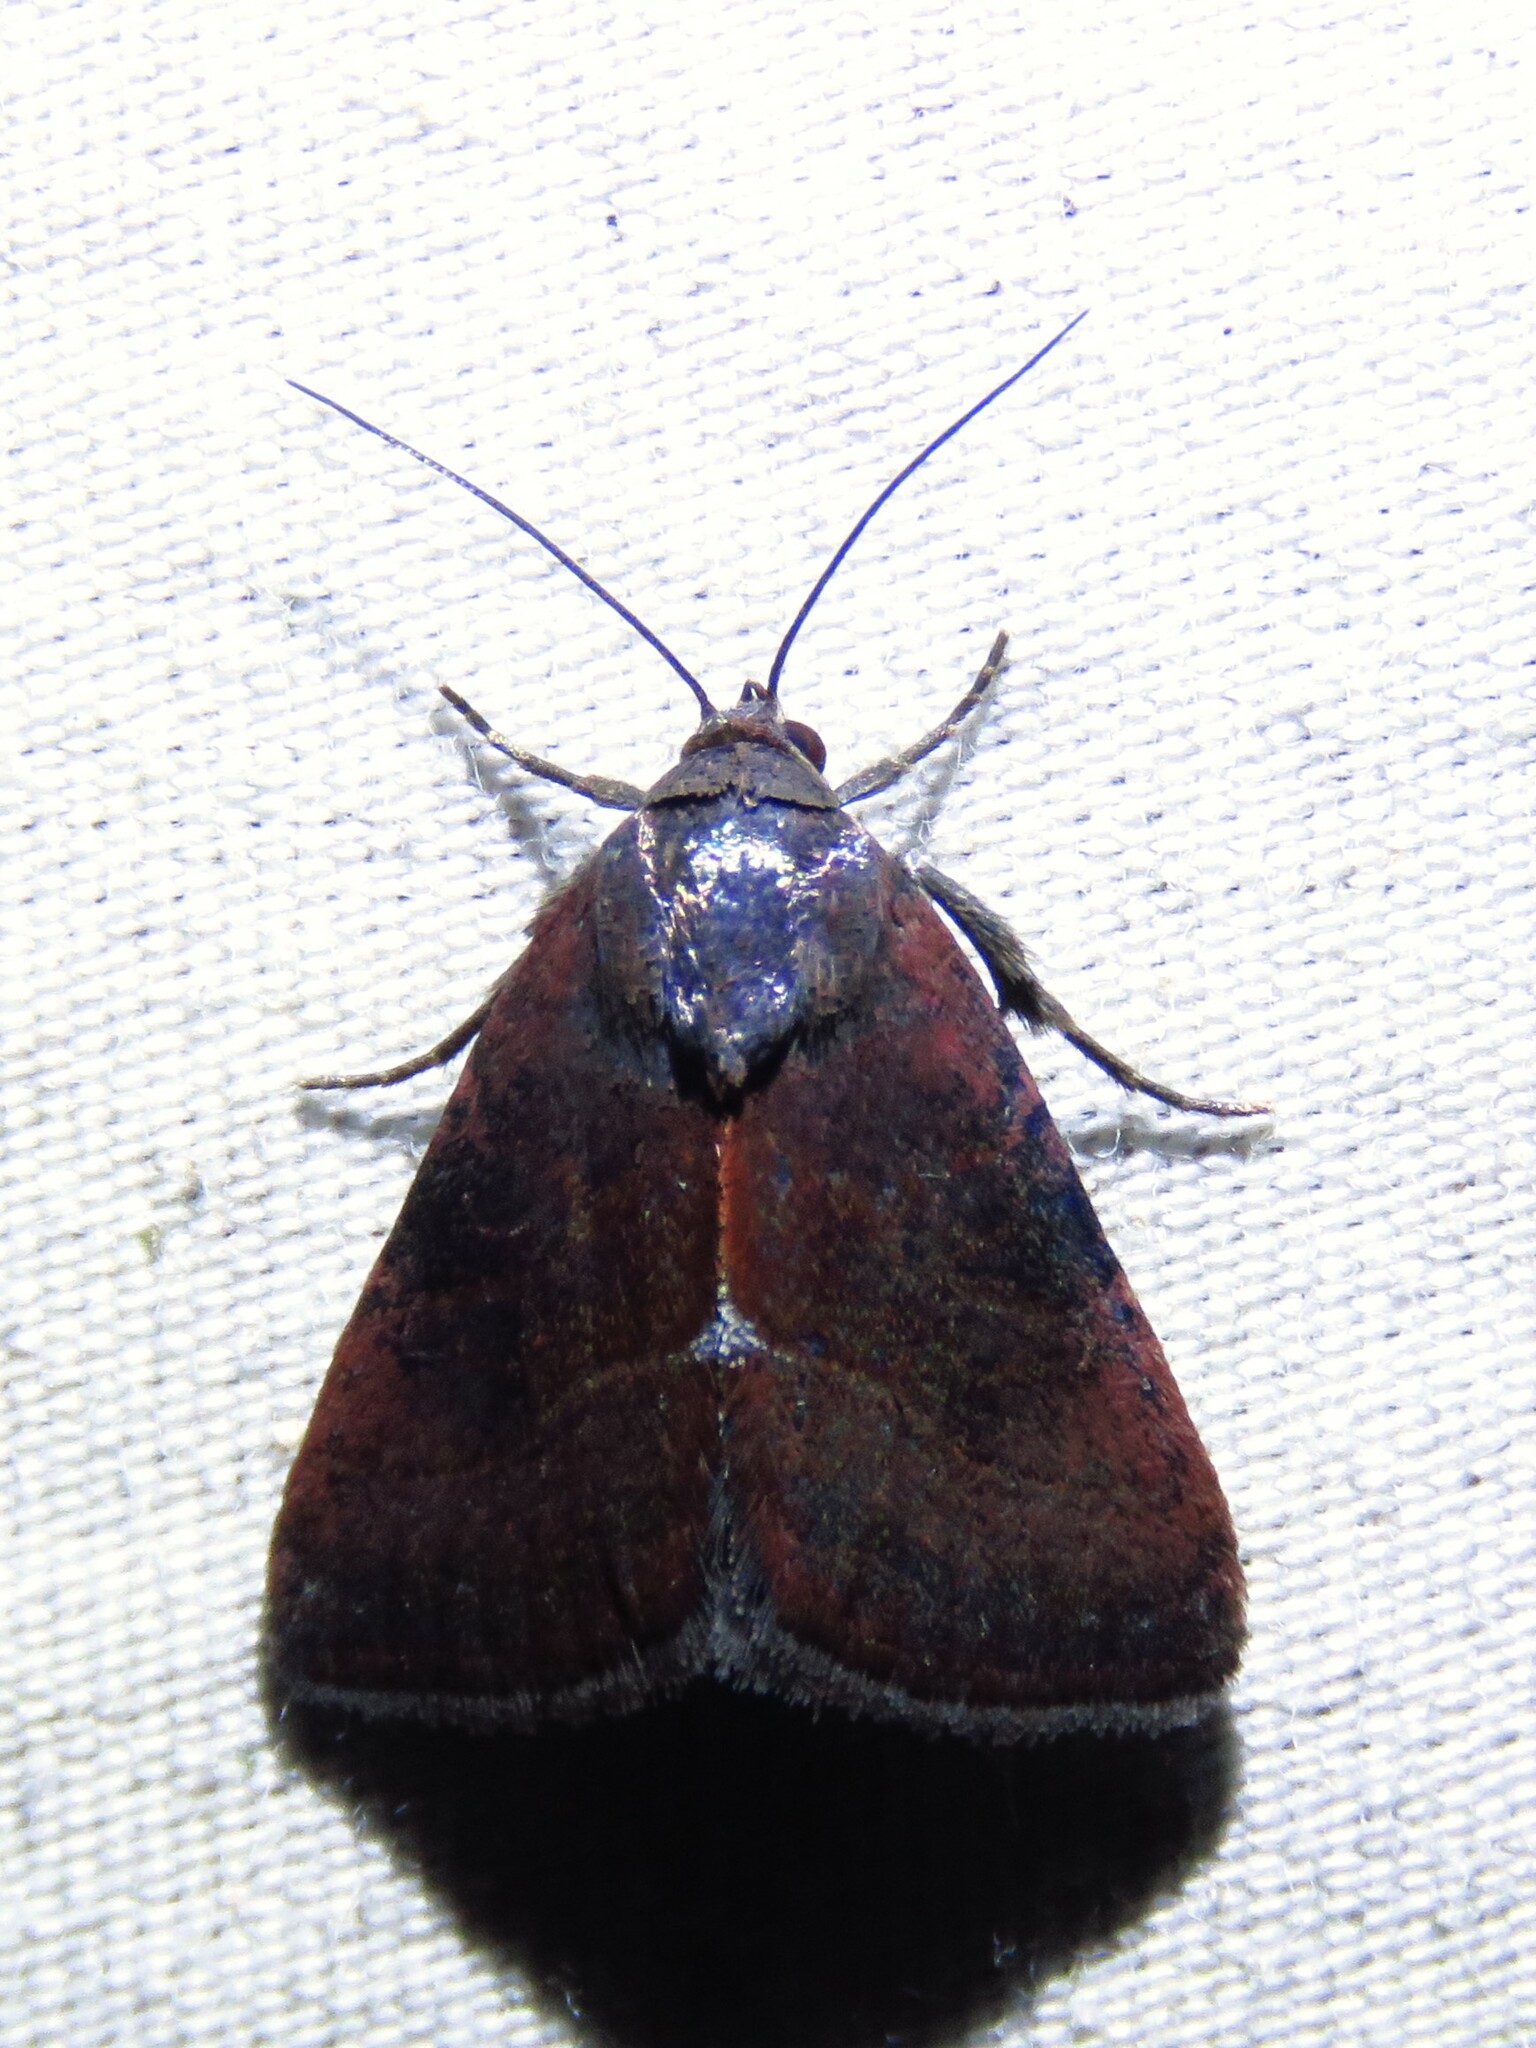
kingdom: Animalia
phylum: Arthropoda
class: Insecta
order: Lepidoptera
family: Noctuidae
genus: Galgula
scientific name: Galgula partita
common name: Wedgeling
